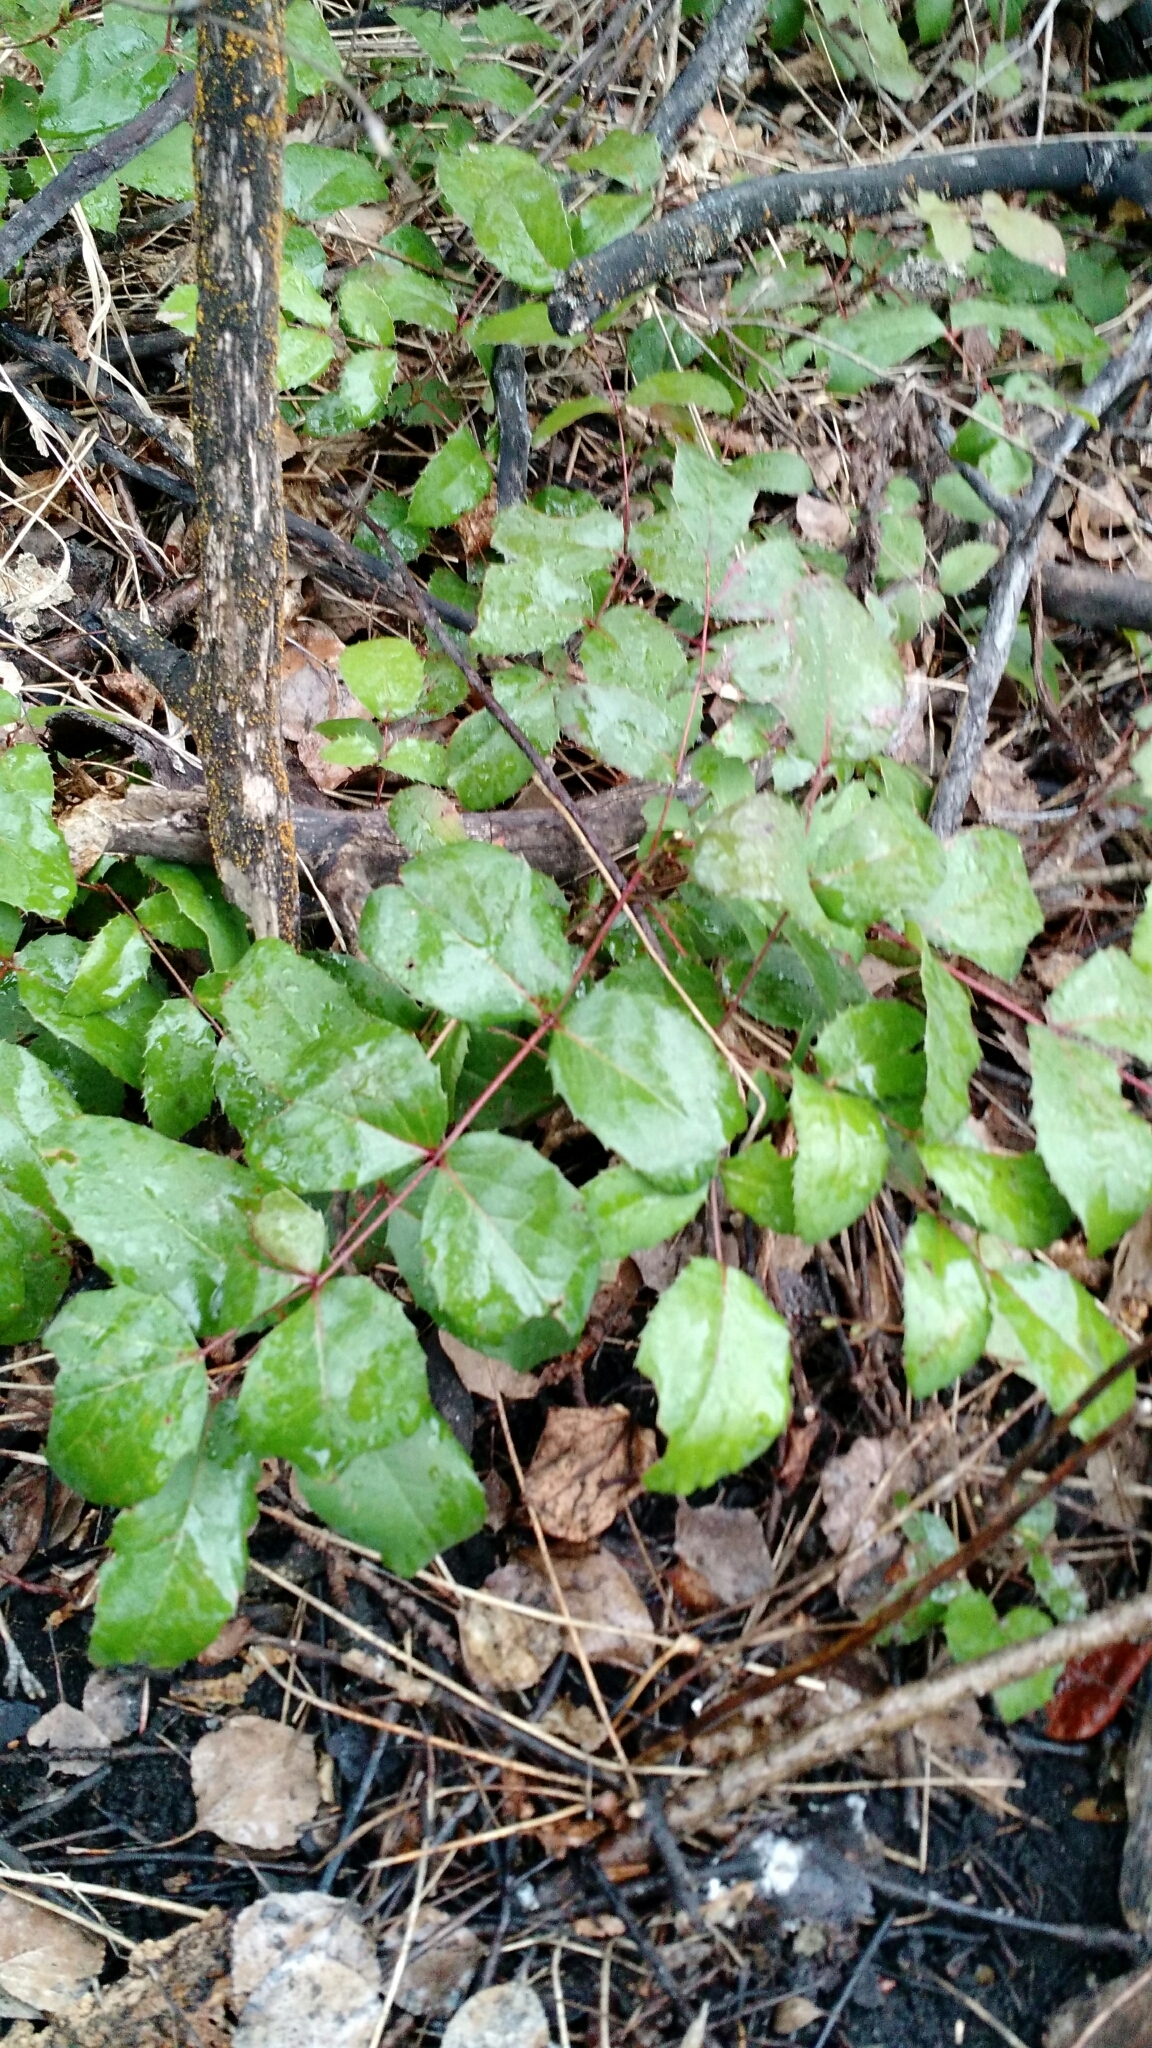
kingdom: Plantae
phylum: Tracheophyta
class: Magnoliopsida
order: Ranunculales
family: Berberidaceae
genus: Mahonia
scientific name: Mahonia repens
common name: Creeping oregon-grape
